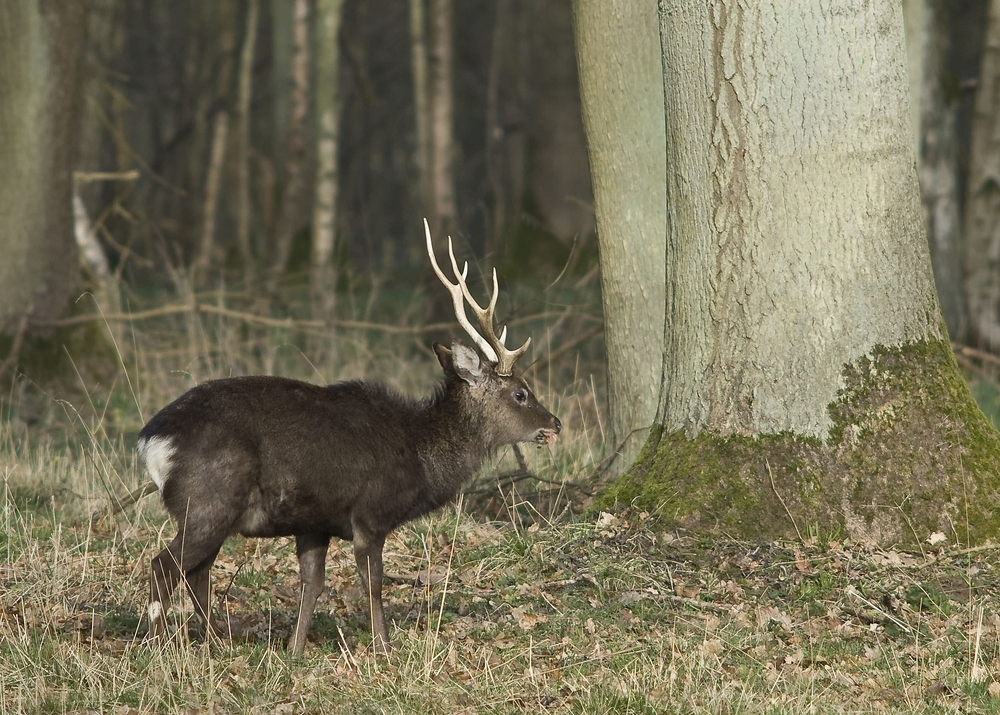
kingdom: Animalia
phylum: Chordata
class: Mammalia
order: Artiodactyla
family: Cervidae
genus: Cervus
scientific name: Cervus nippon
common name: Sika deer
